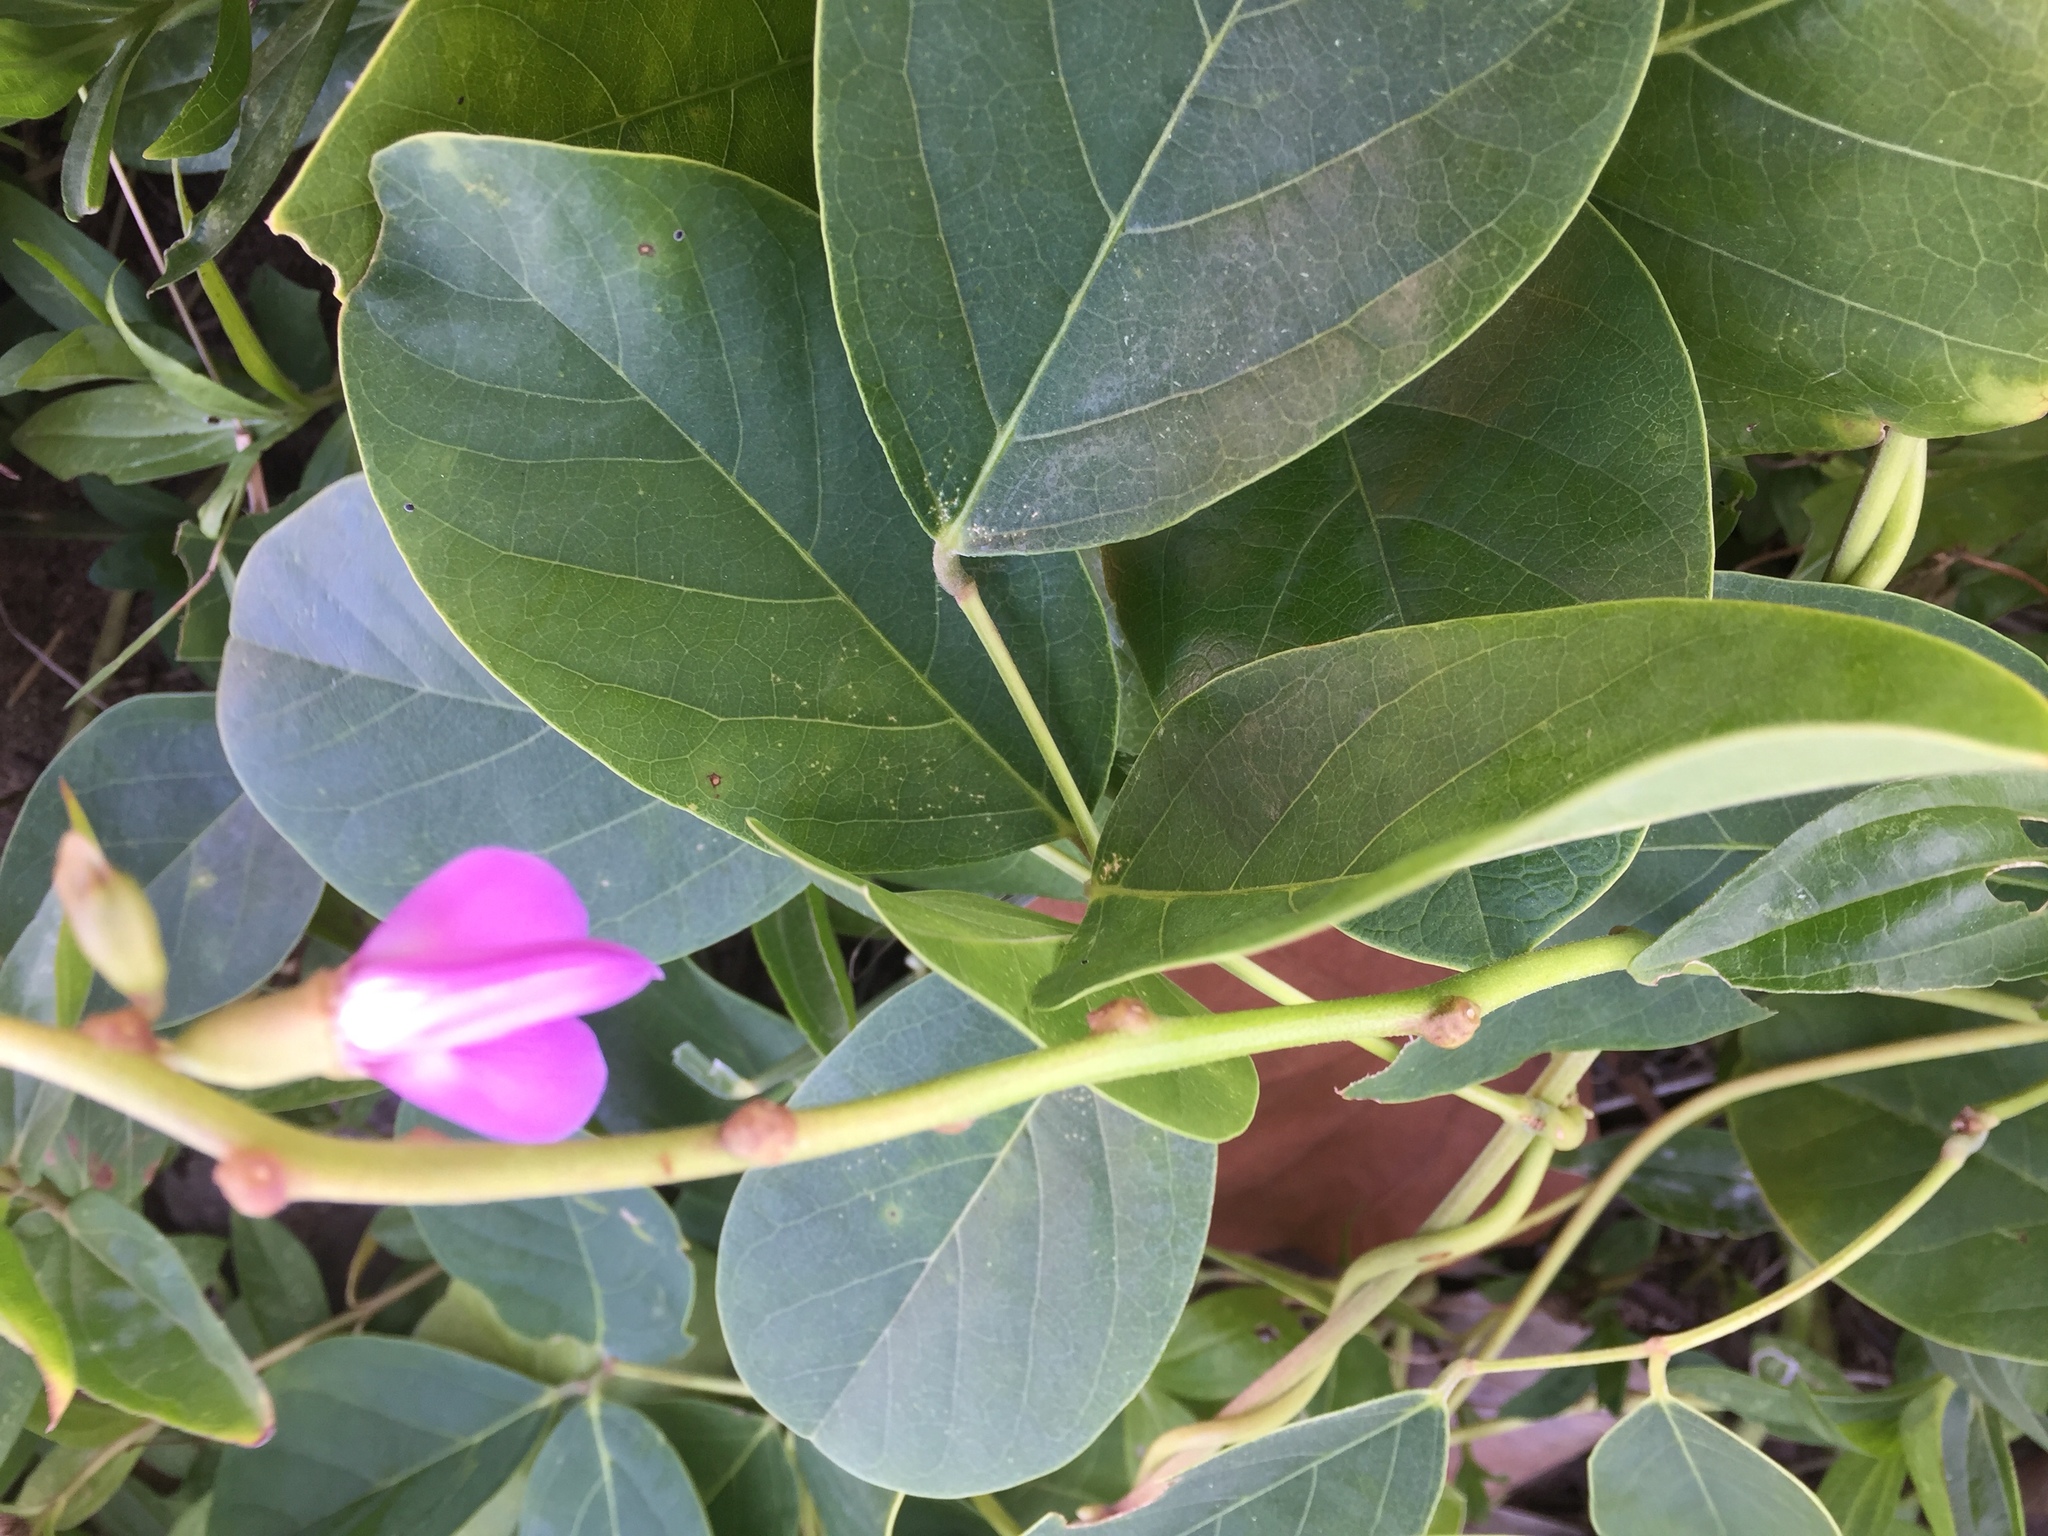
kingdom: Plantae
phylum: Tracheophyta
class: Magnoliopsida
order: Fabales
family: Fabaceae
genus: Canavalia
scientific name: Canavalia rosea
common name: Beach-bean
